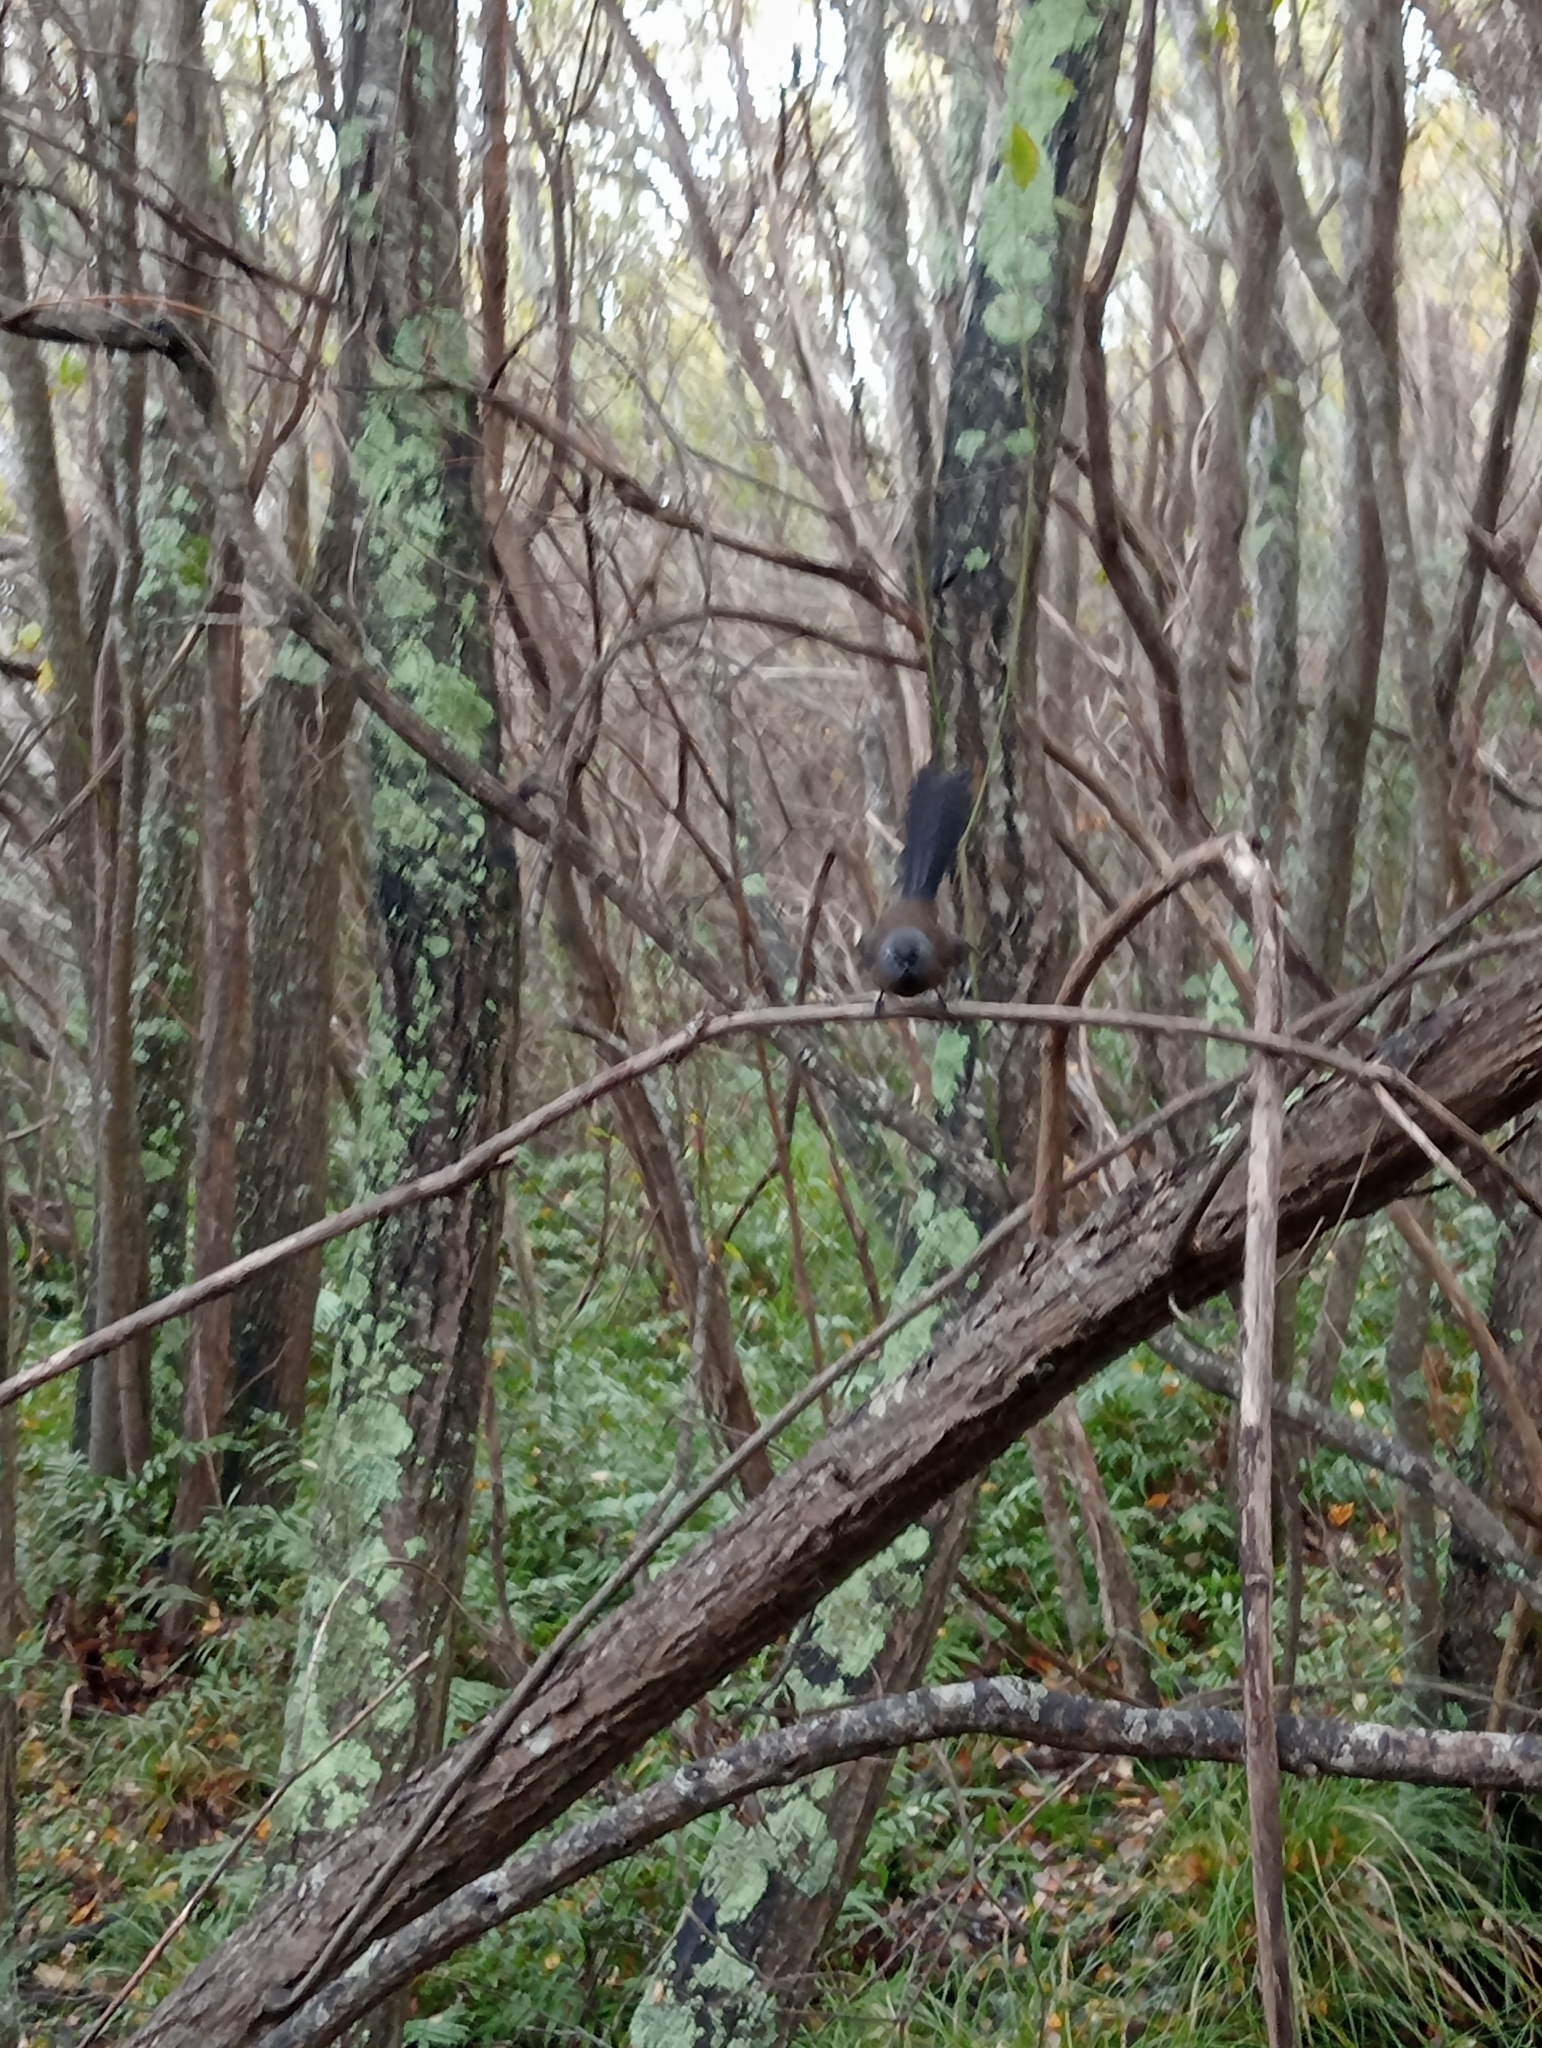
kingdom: Animalia
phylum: Chordata
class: Aves
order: Passeriformes
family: Rhipiduridae
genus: Rhipidura
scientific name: Rhipidura fuliginosa
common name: New zealand fantail
